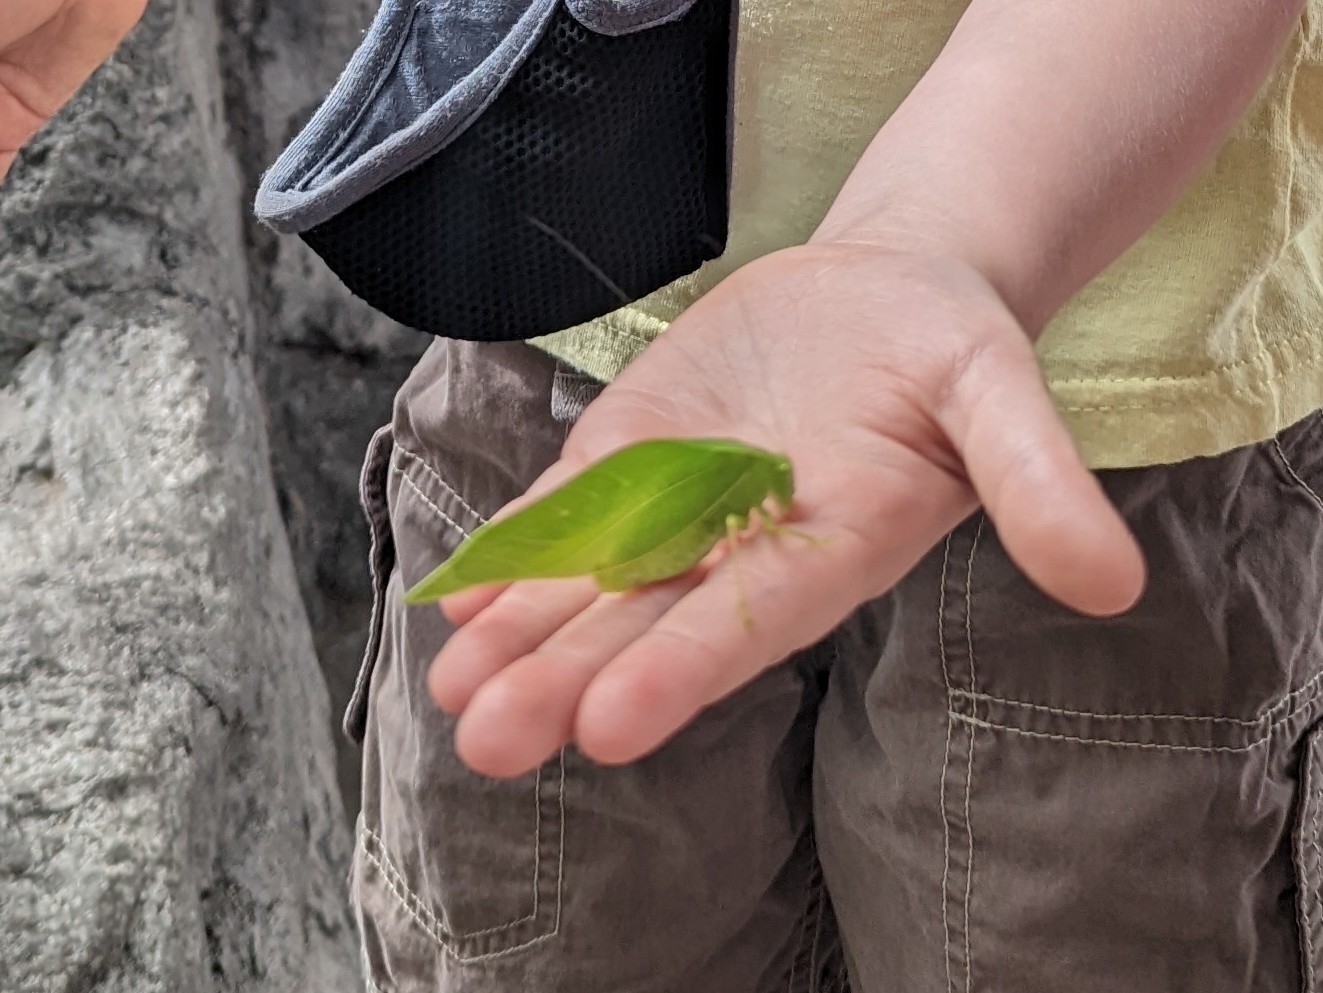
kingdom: Animalia
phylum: Arthropoda
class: Insecta
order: Orthoptera
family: Tettigoniidae
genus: Microcentrum
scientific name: Microcentrum rhombifolium
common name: Broad-winged katydid
